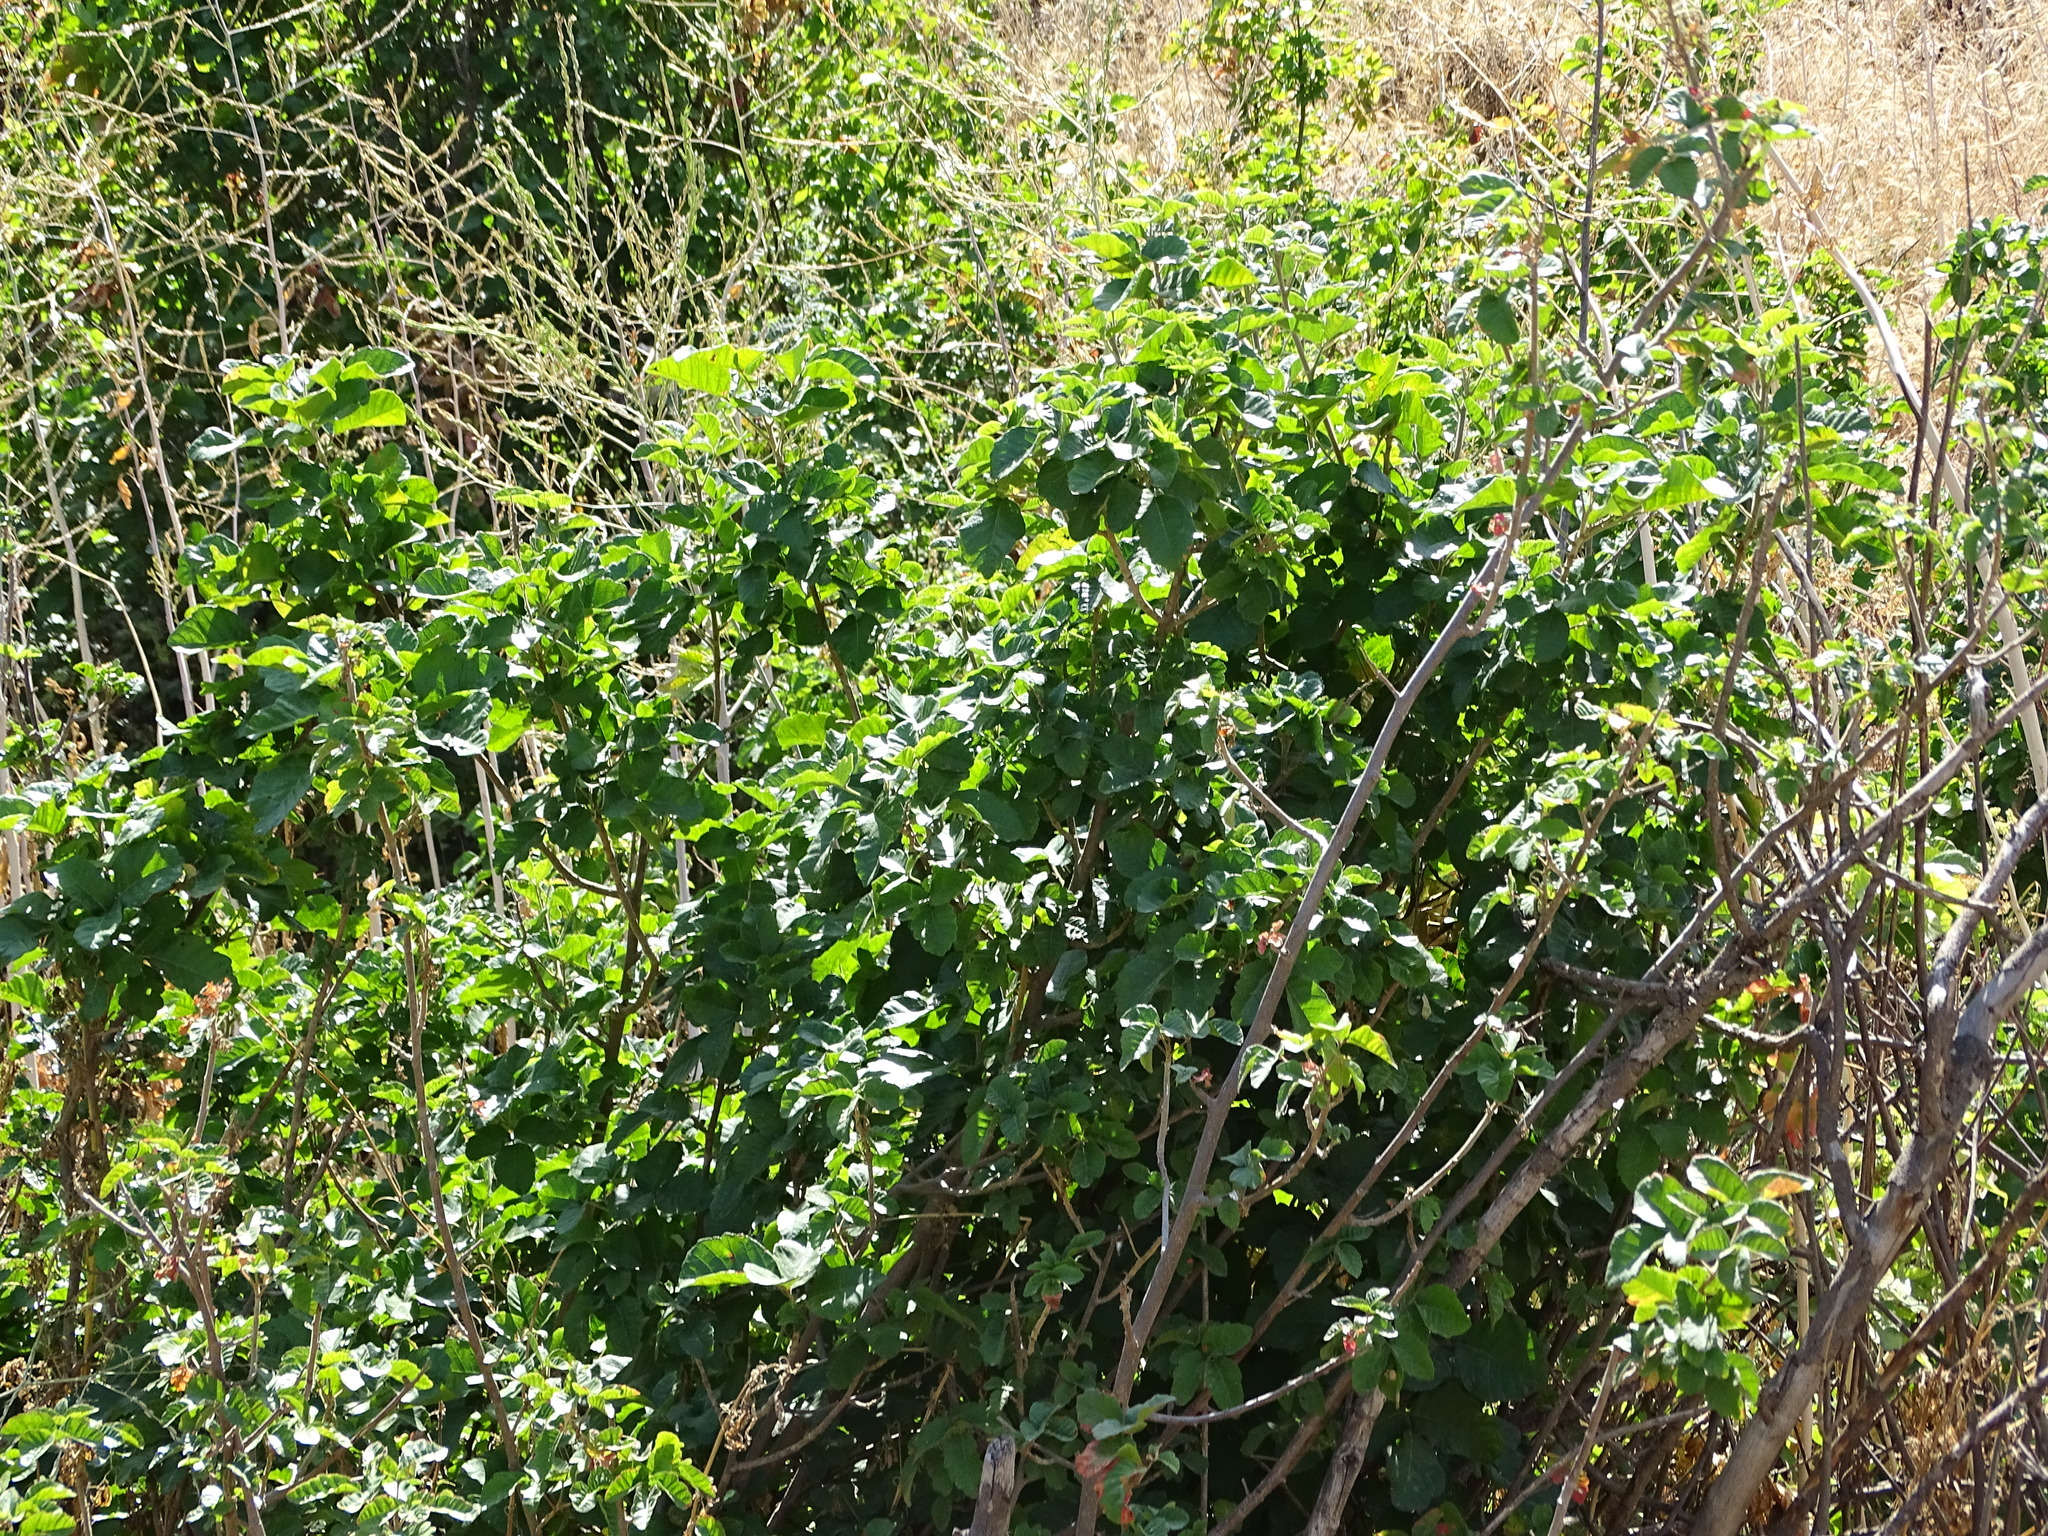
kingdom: Plantae
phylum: Tracheophyta
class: Magnoliopsida
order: Sapindales
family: Anacardiaceae
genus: Toxicodendron
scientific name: Toxicodendron diversilobum
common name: Pacific poison-oak
